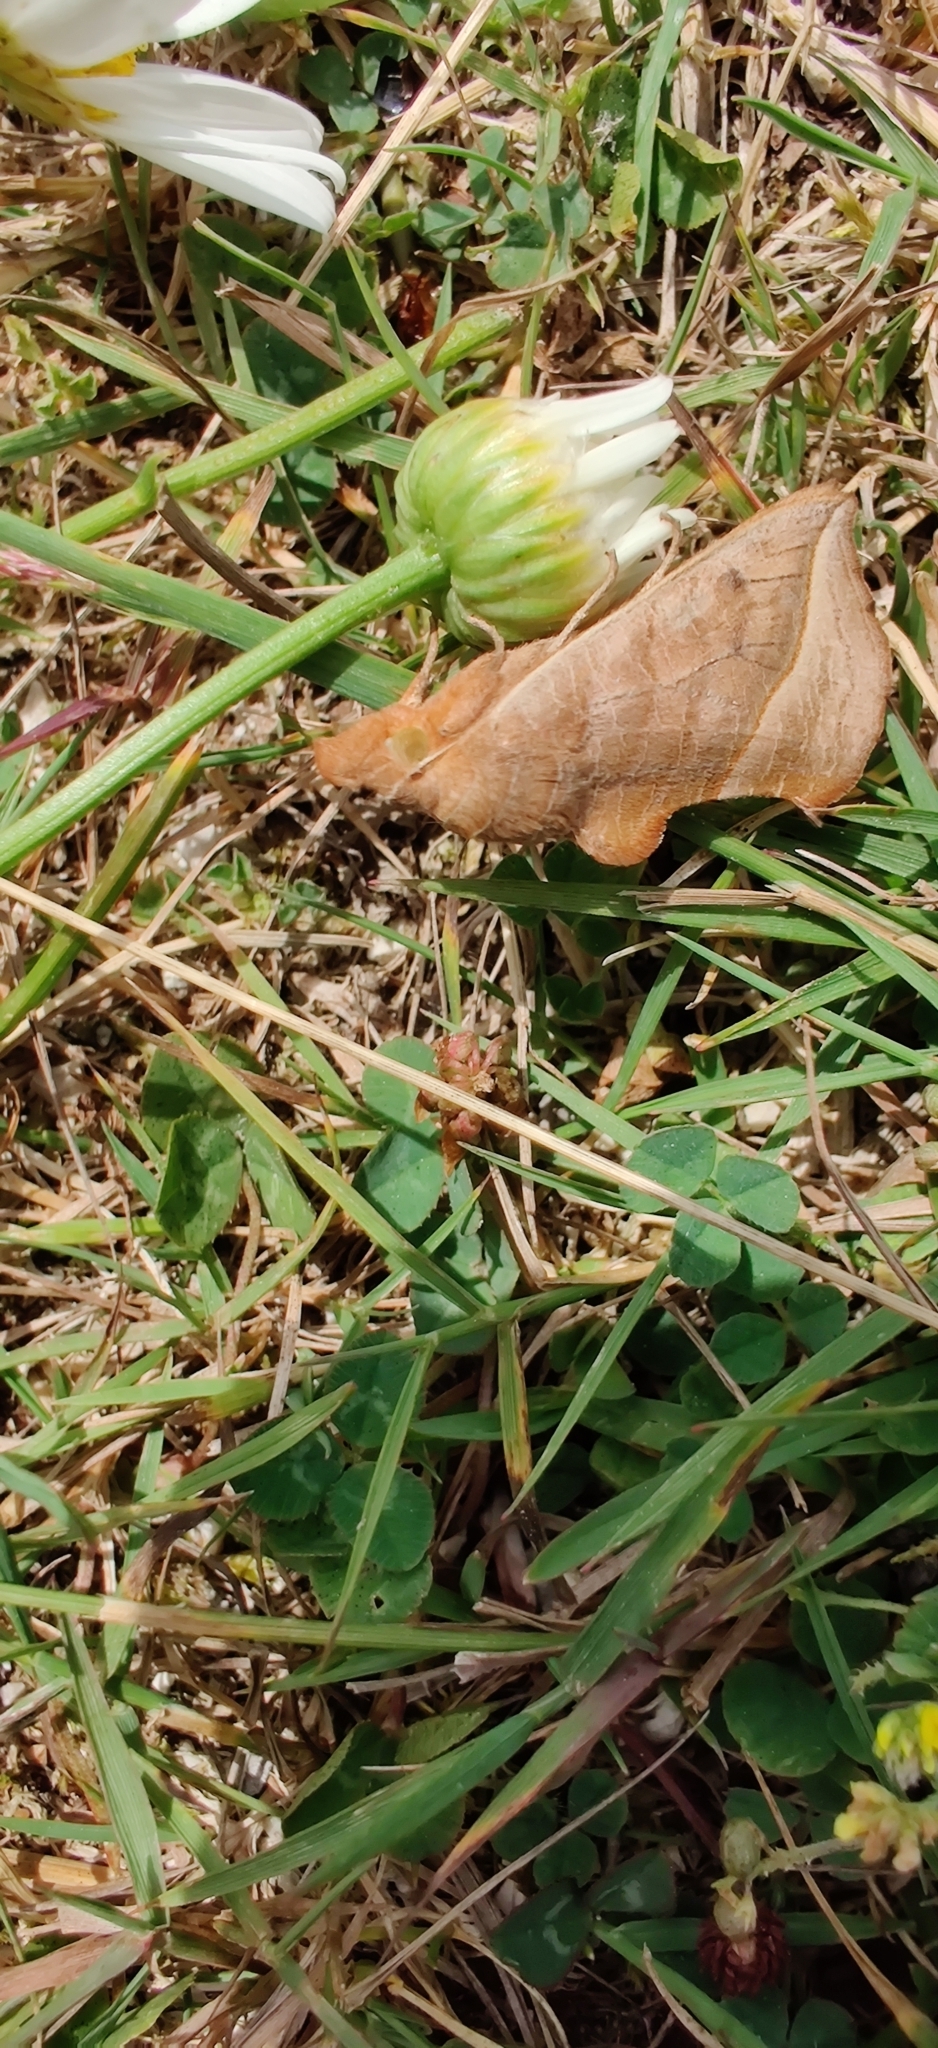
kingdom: Animalia
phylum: Arthropoda
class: Insecta
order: Lepidoptera
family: Erebidae
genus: Calyptra
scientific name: Calyptra thalictri
